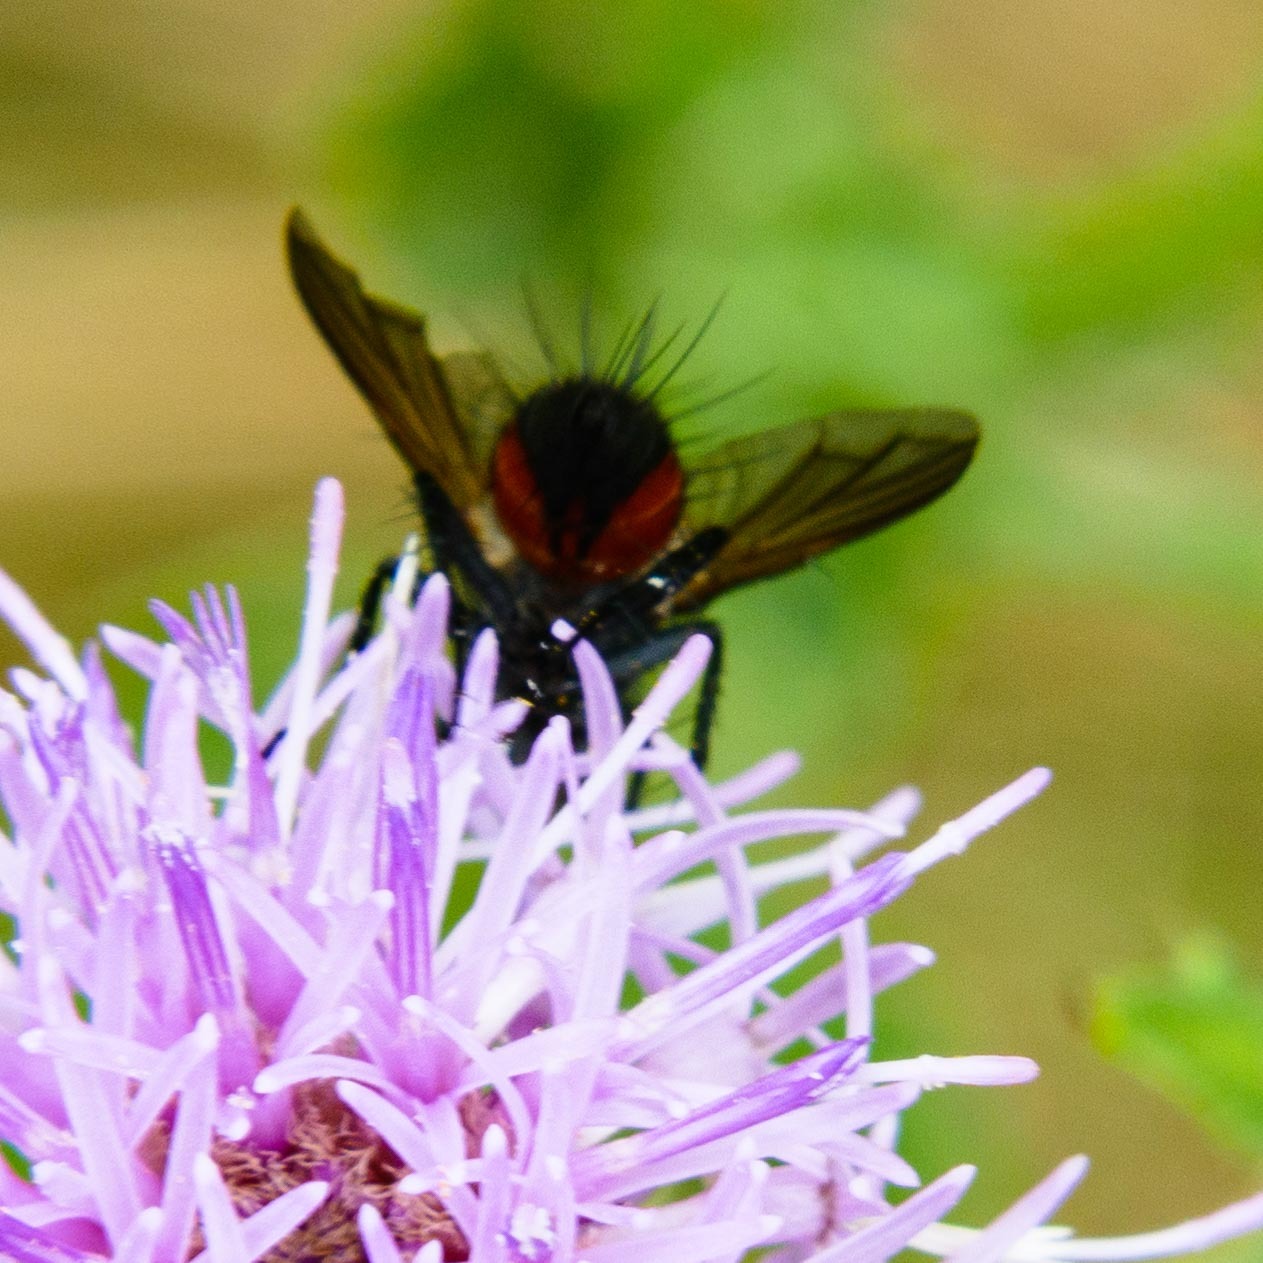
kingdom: Animalia
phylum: Arthropoda
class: Insecta
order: Diptera
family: Tachinidae
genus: Eriothrix
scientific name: Eriothrix rufomaculatus
